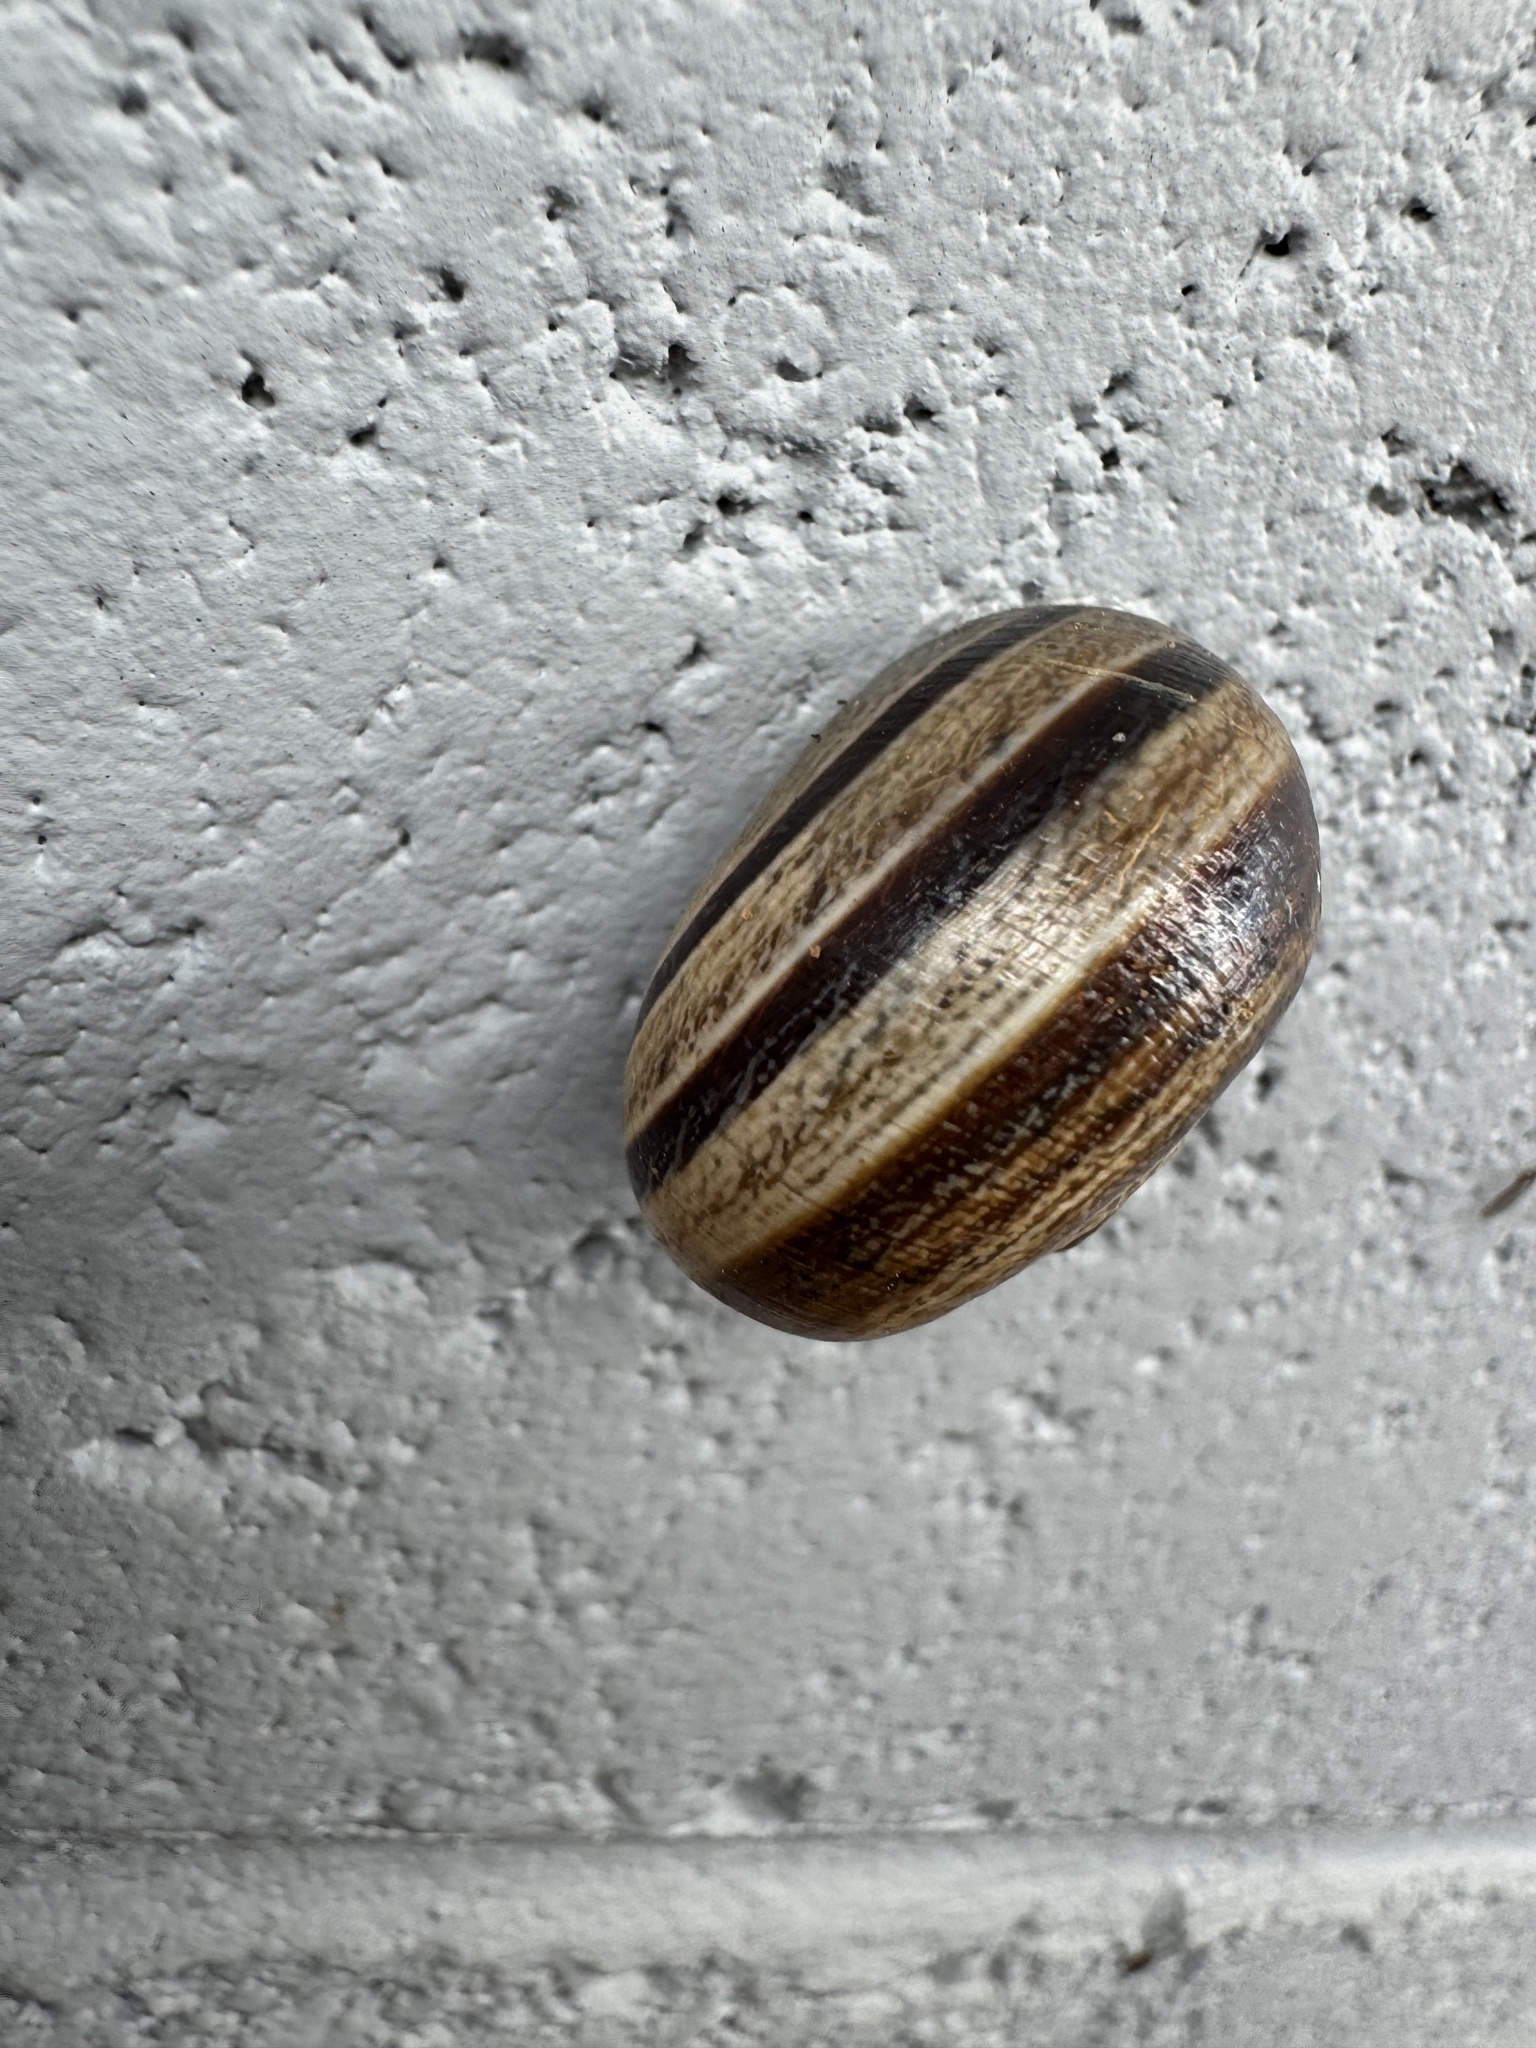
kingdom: Animalia
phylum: Mollusca
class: Gastropoda
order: Stylommatophora
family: Helicidae
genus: Otala
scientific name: Otala lactea
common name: Milk snail
